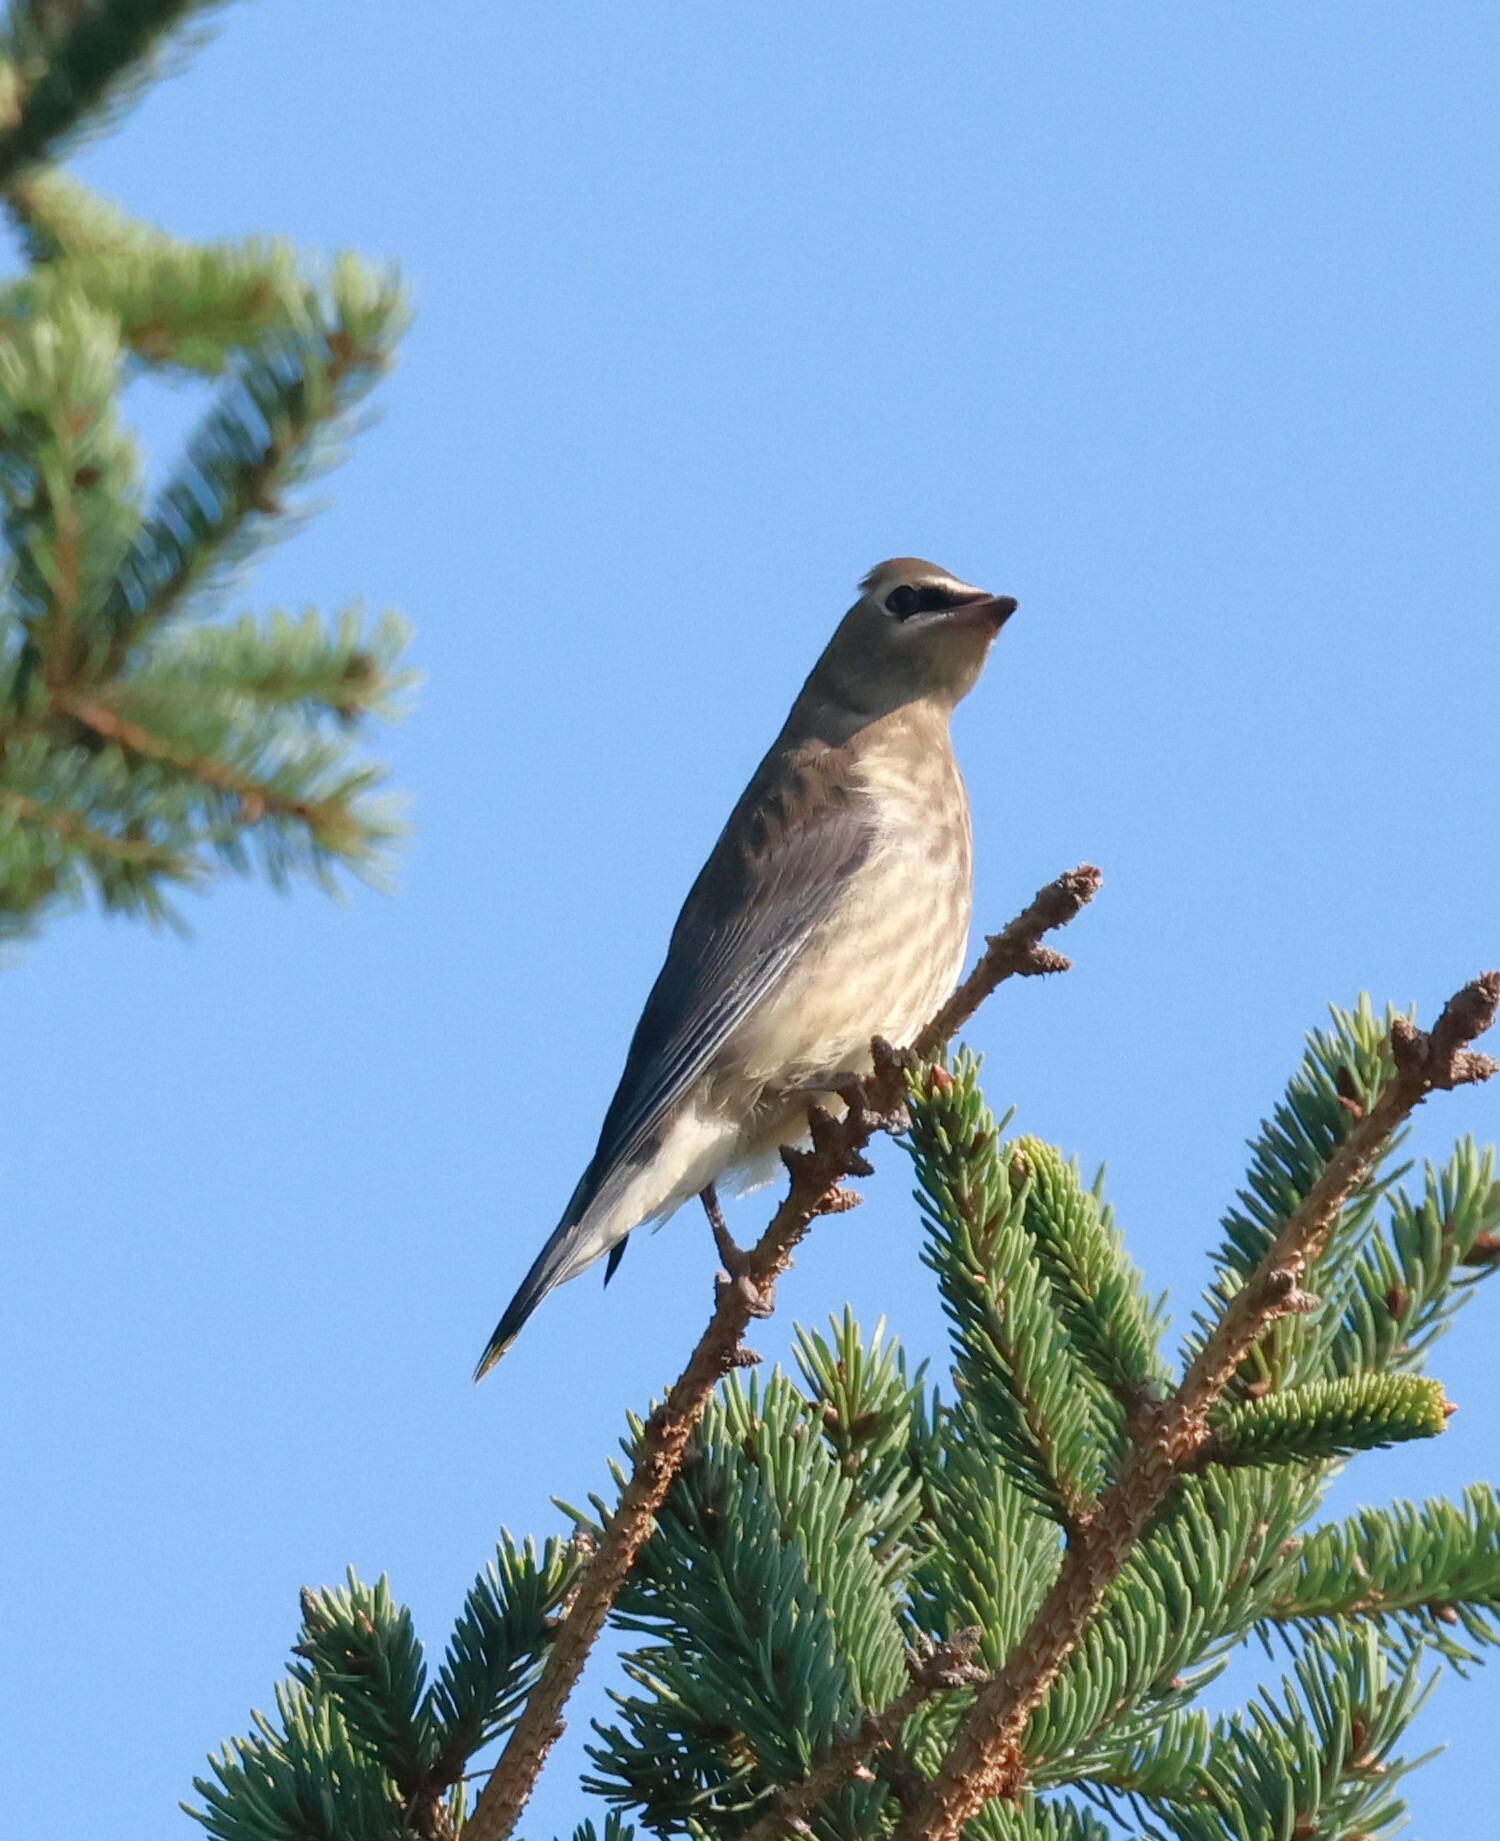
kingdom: Animalia
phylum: Chordata
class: Aves
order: Passeriformes
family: Bombycillidae
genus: Bombycilla
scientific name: Bombycilla cedrorum
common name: Cedar waxwing
